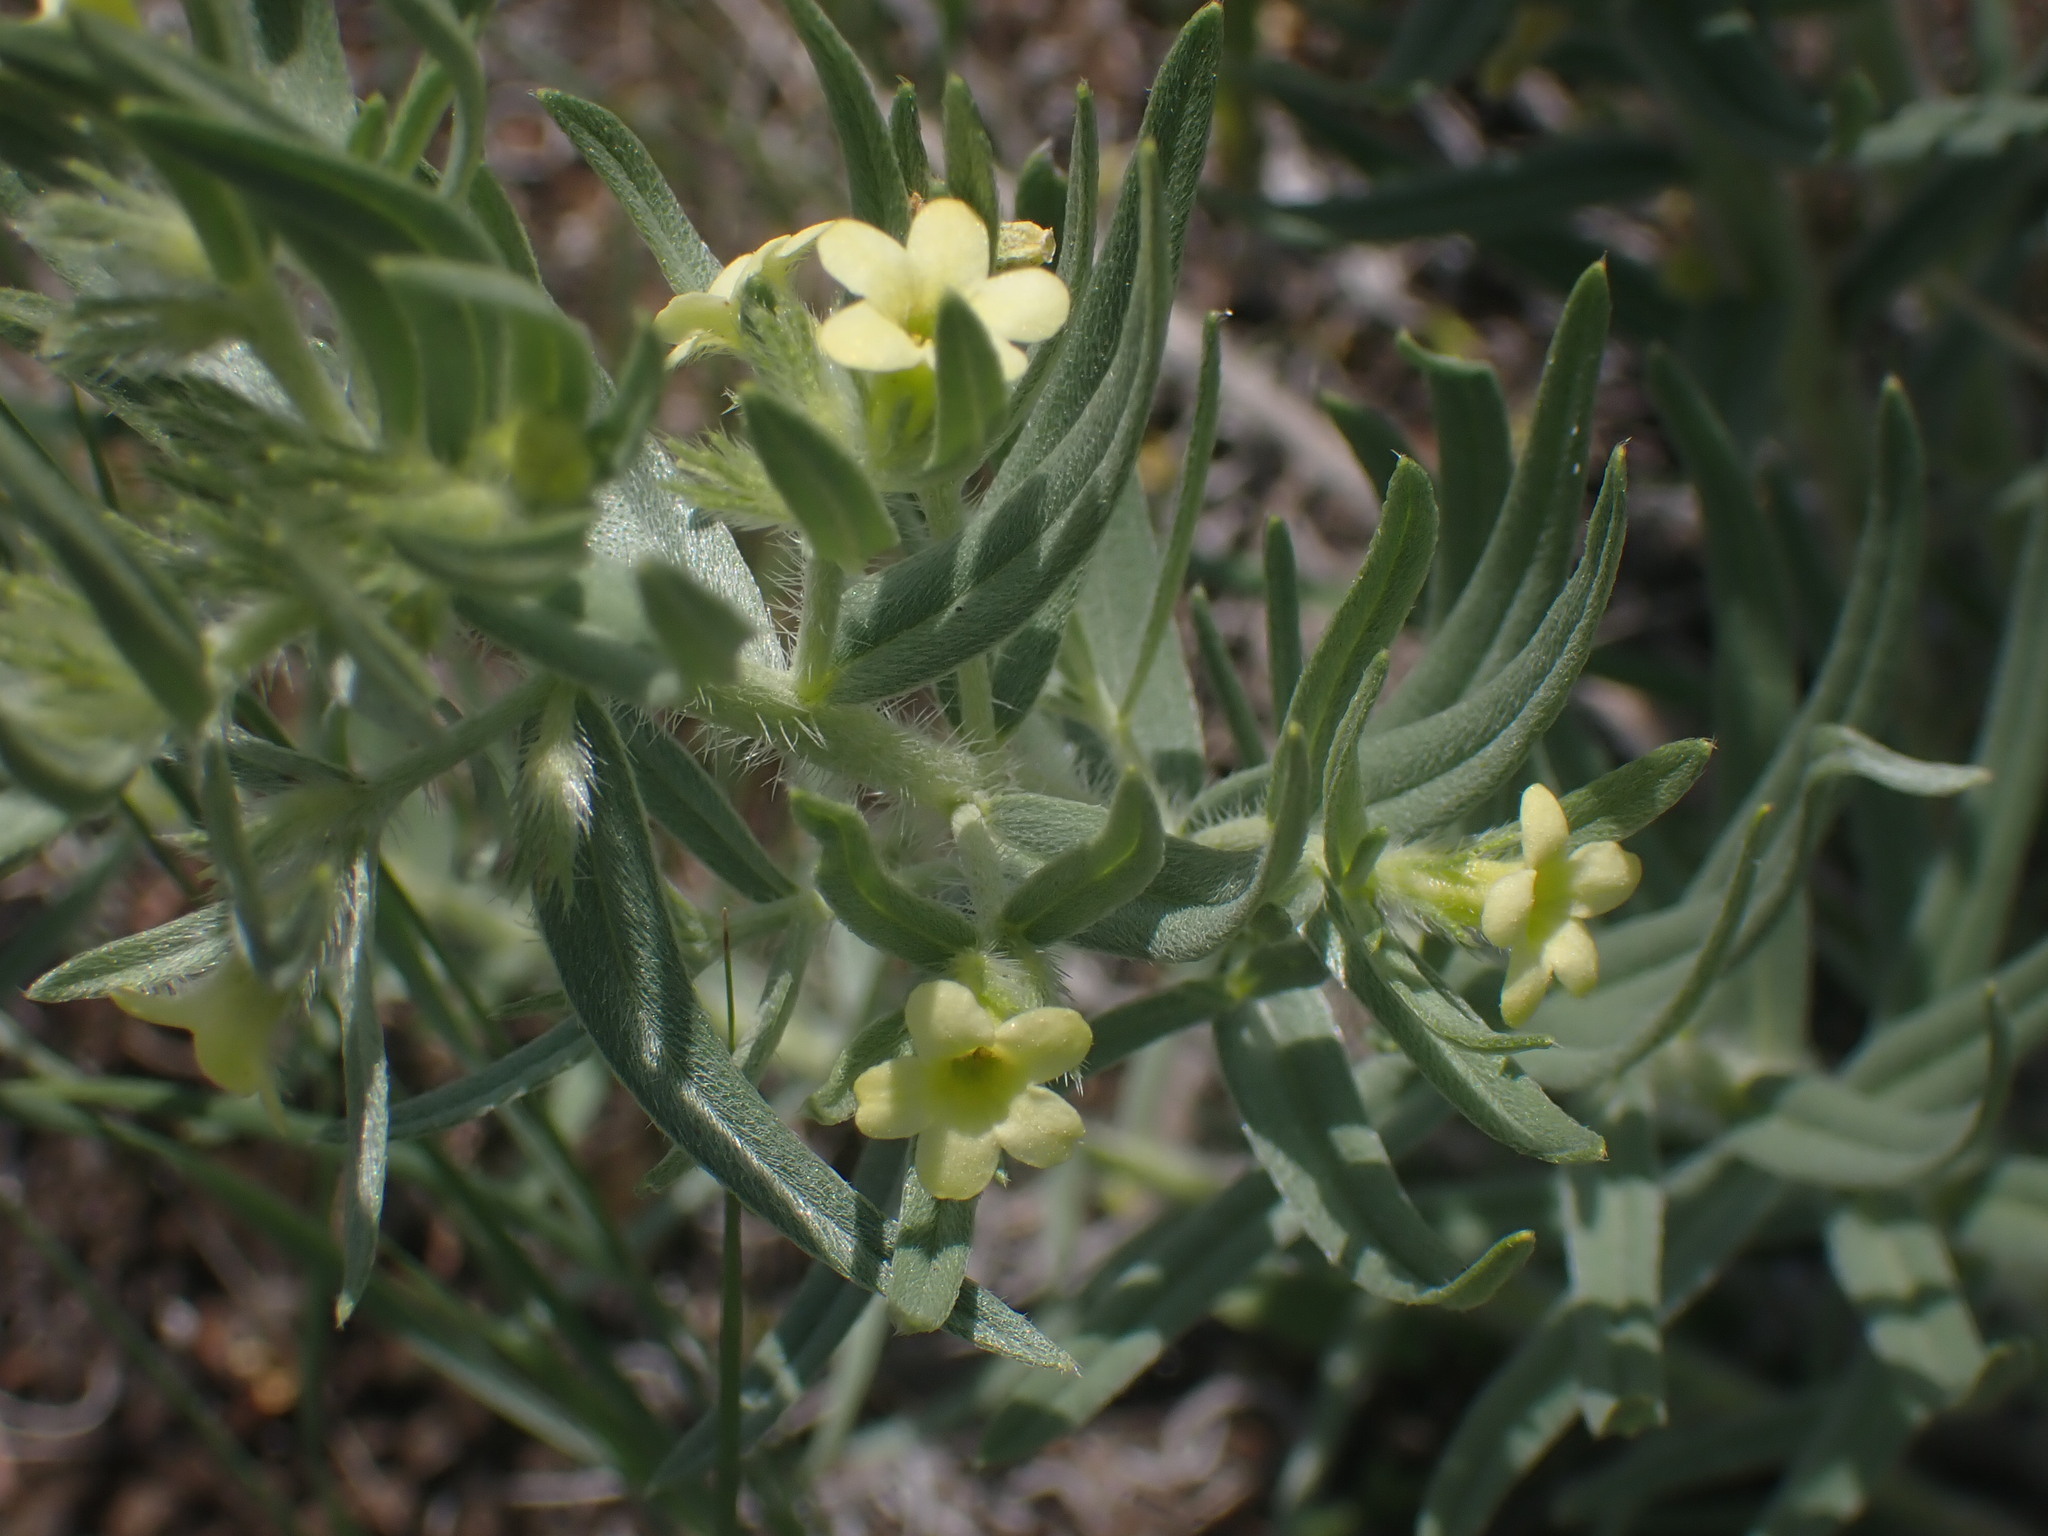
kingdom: Plantae
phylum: Tracheophyta
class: Magnoliopsida
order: Boraginales
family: Boraginaceae
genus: Lithospermum
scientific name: Lithospermum ruderale
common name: Western gromwell
